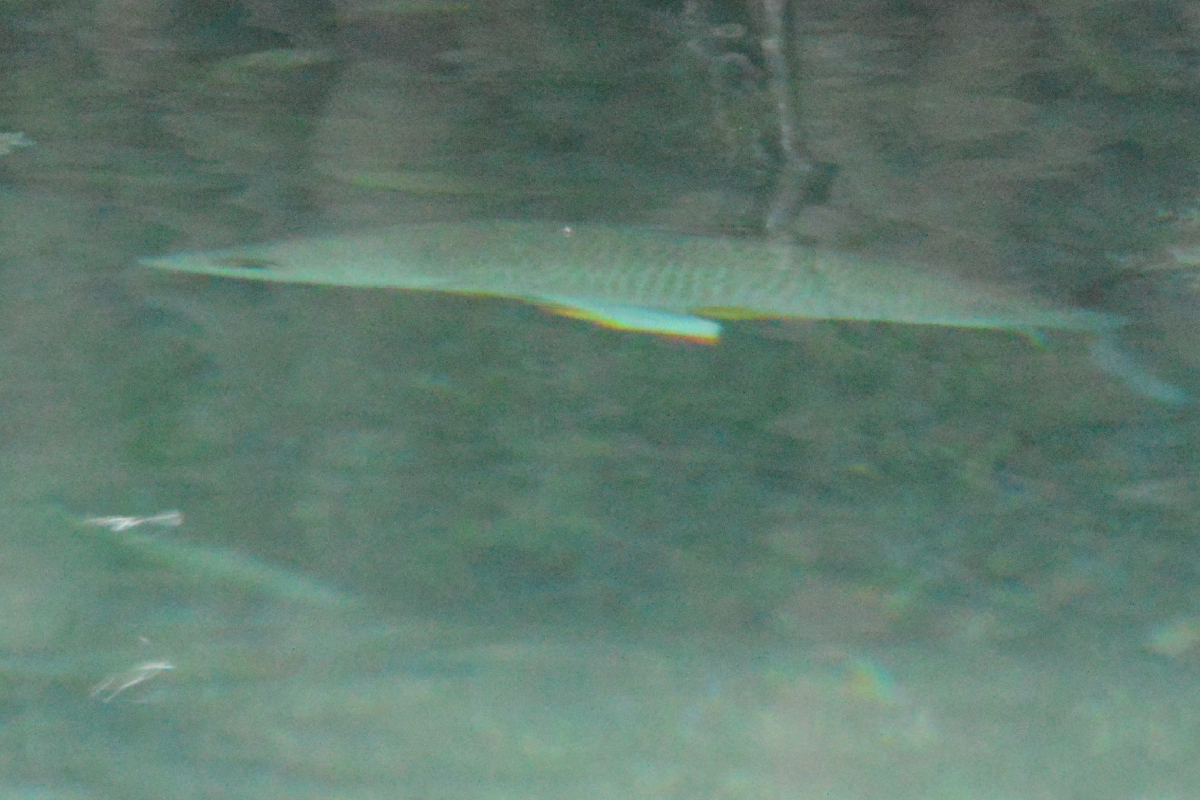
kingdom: Animalia
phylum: Chordata
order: Perciformes
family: Lutjanidae
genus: Lutjanus
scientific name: Lutjanus apodus
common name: Schoolmaster
